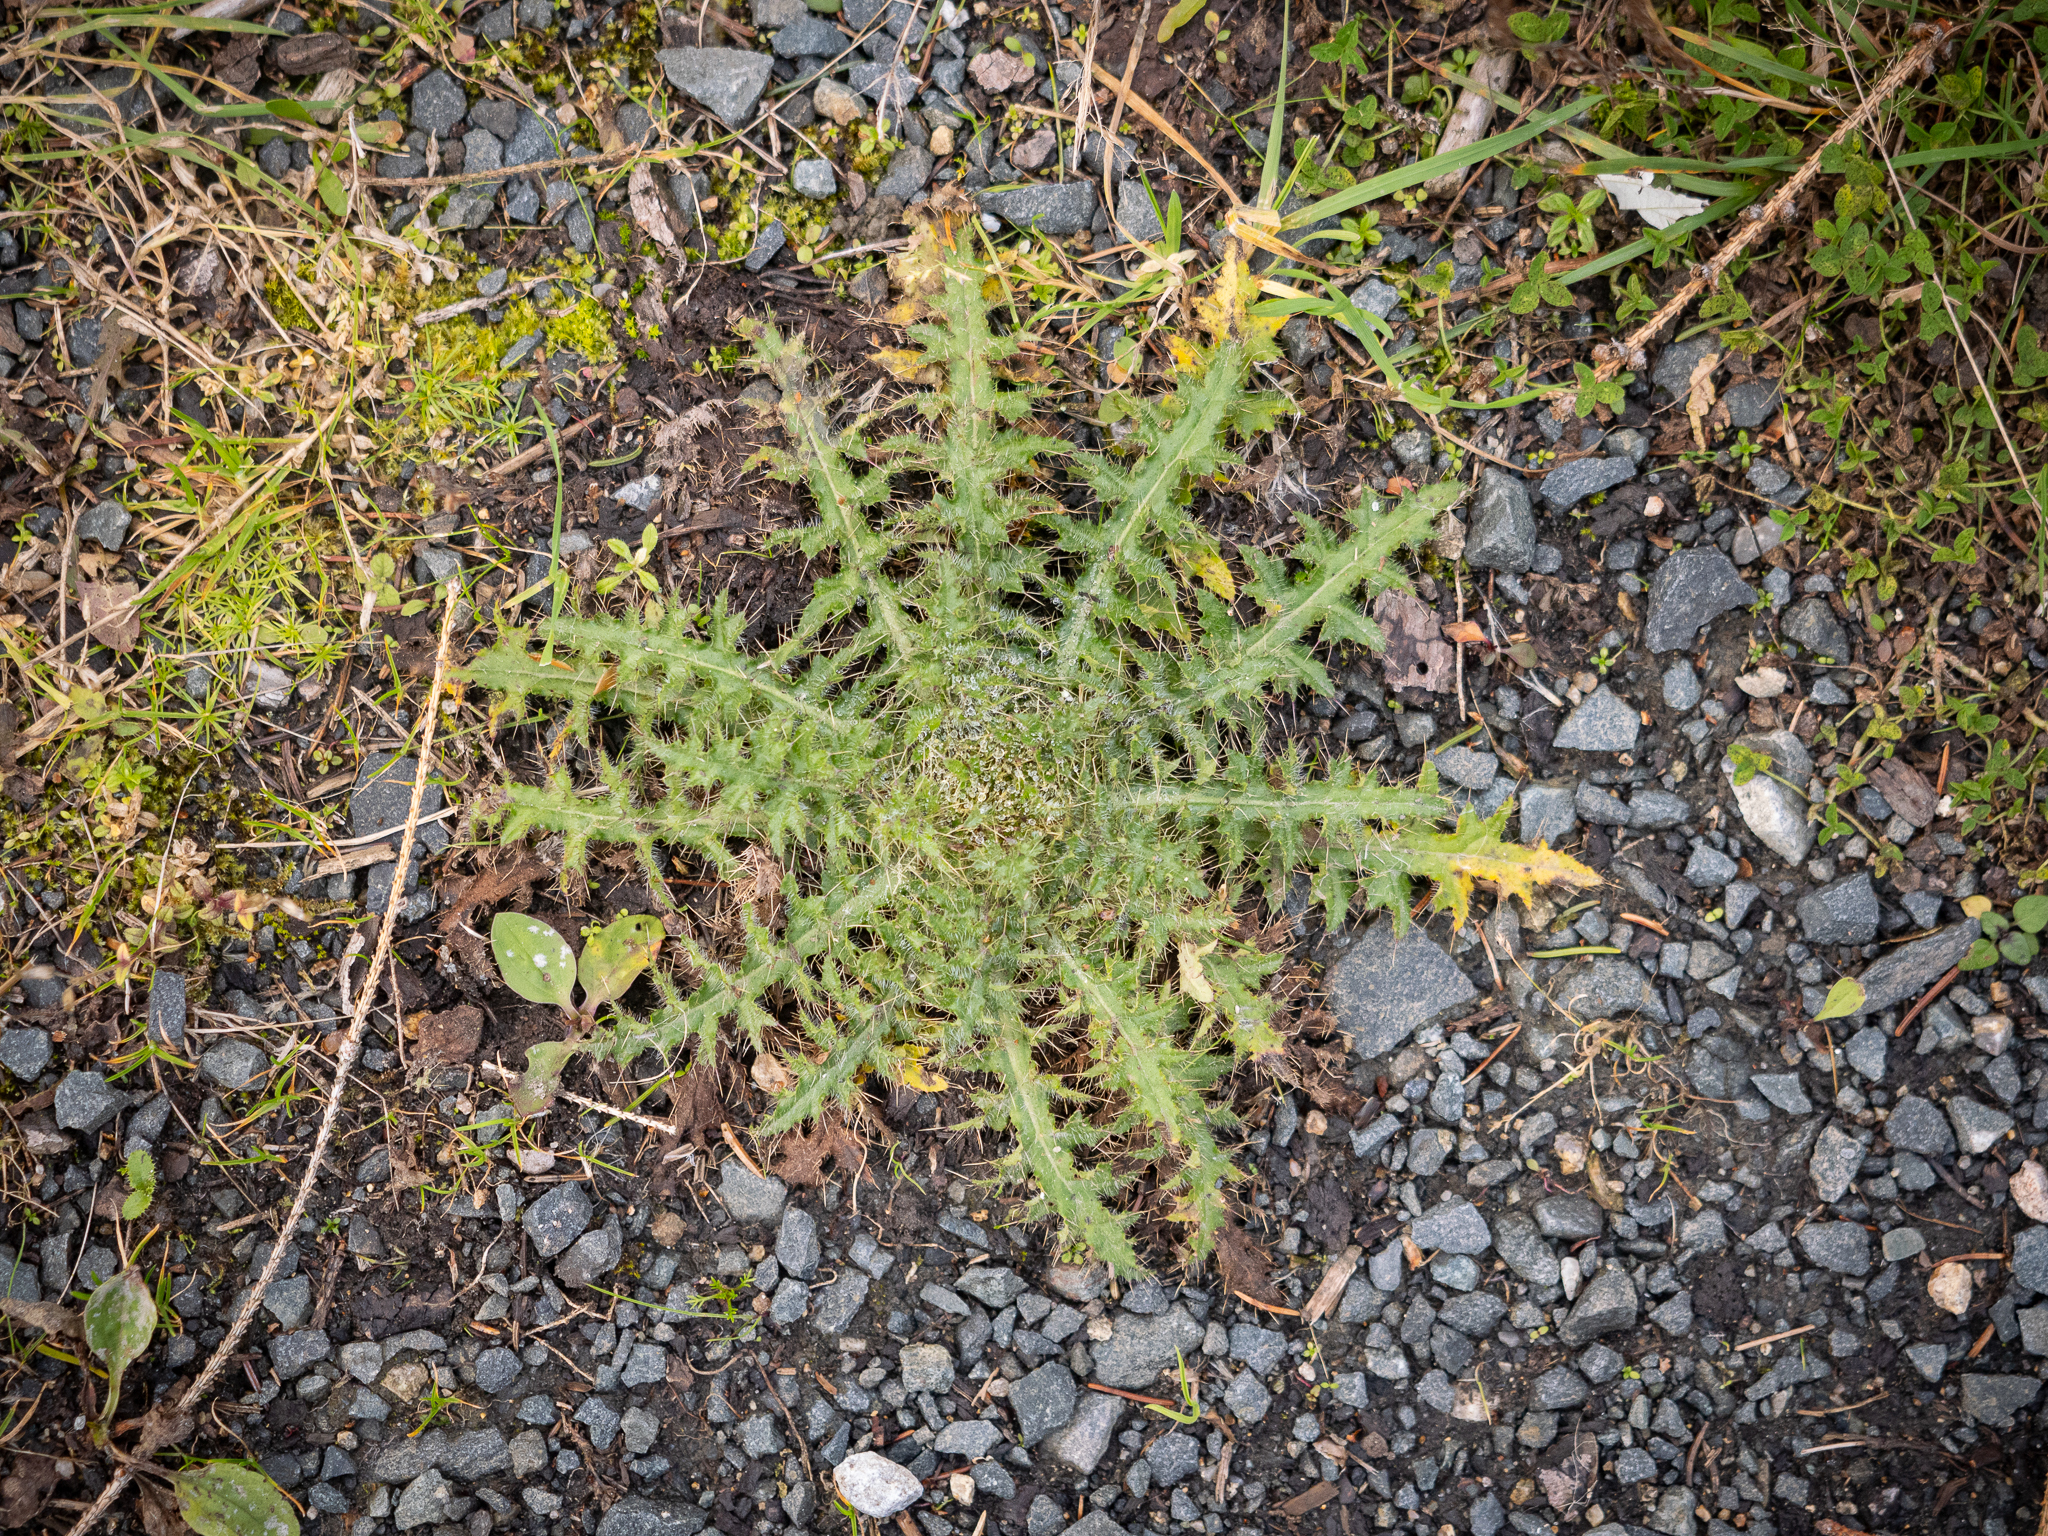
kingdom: Plantae
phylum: Tracheophyta
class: Magnoliopsida
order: Asterales
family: Asteraceae
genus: Cirsium
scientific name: Cirsium palustre
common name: Marsh thistle
